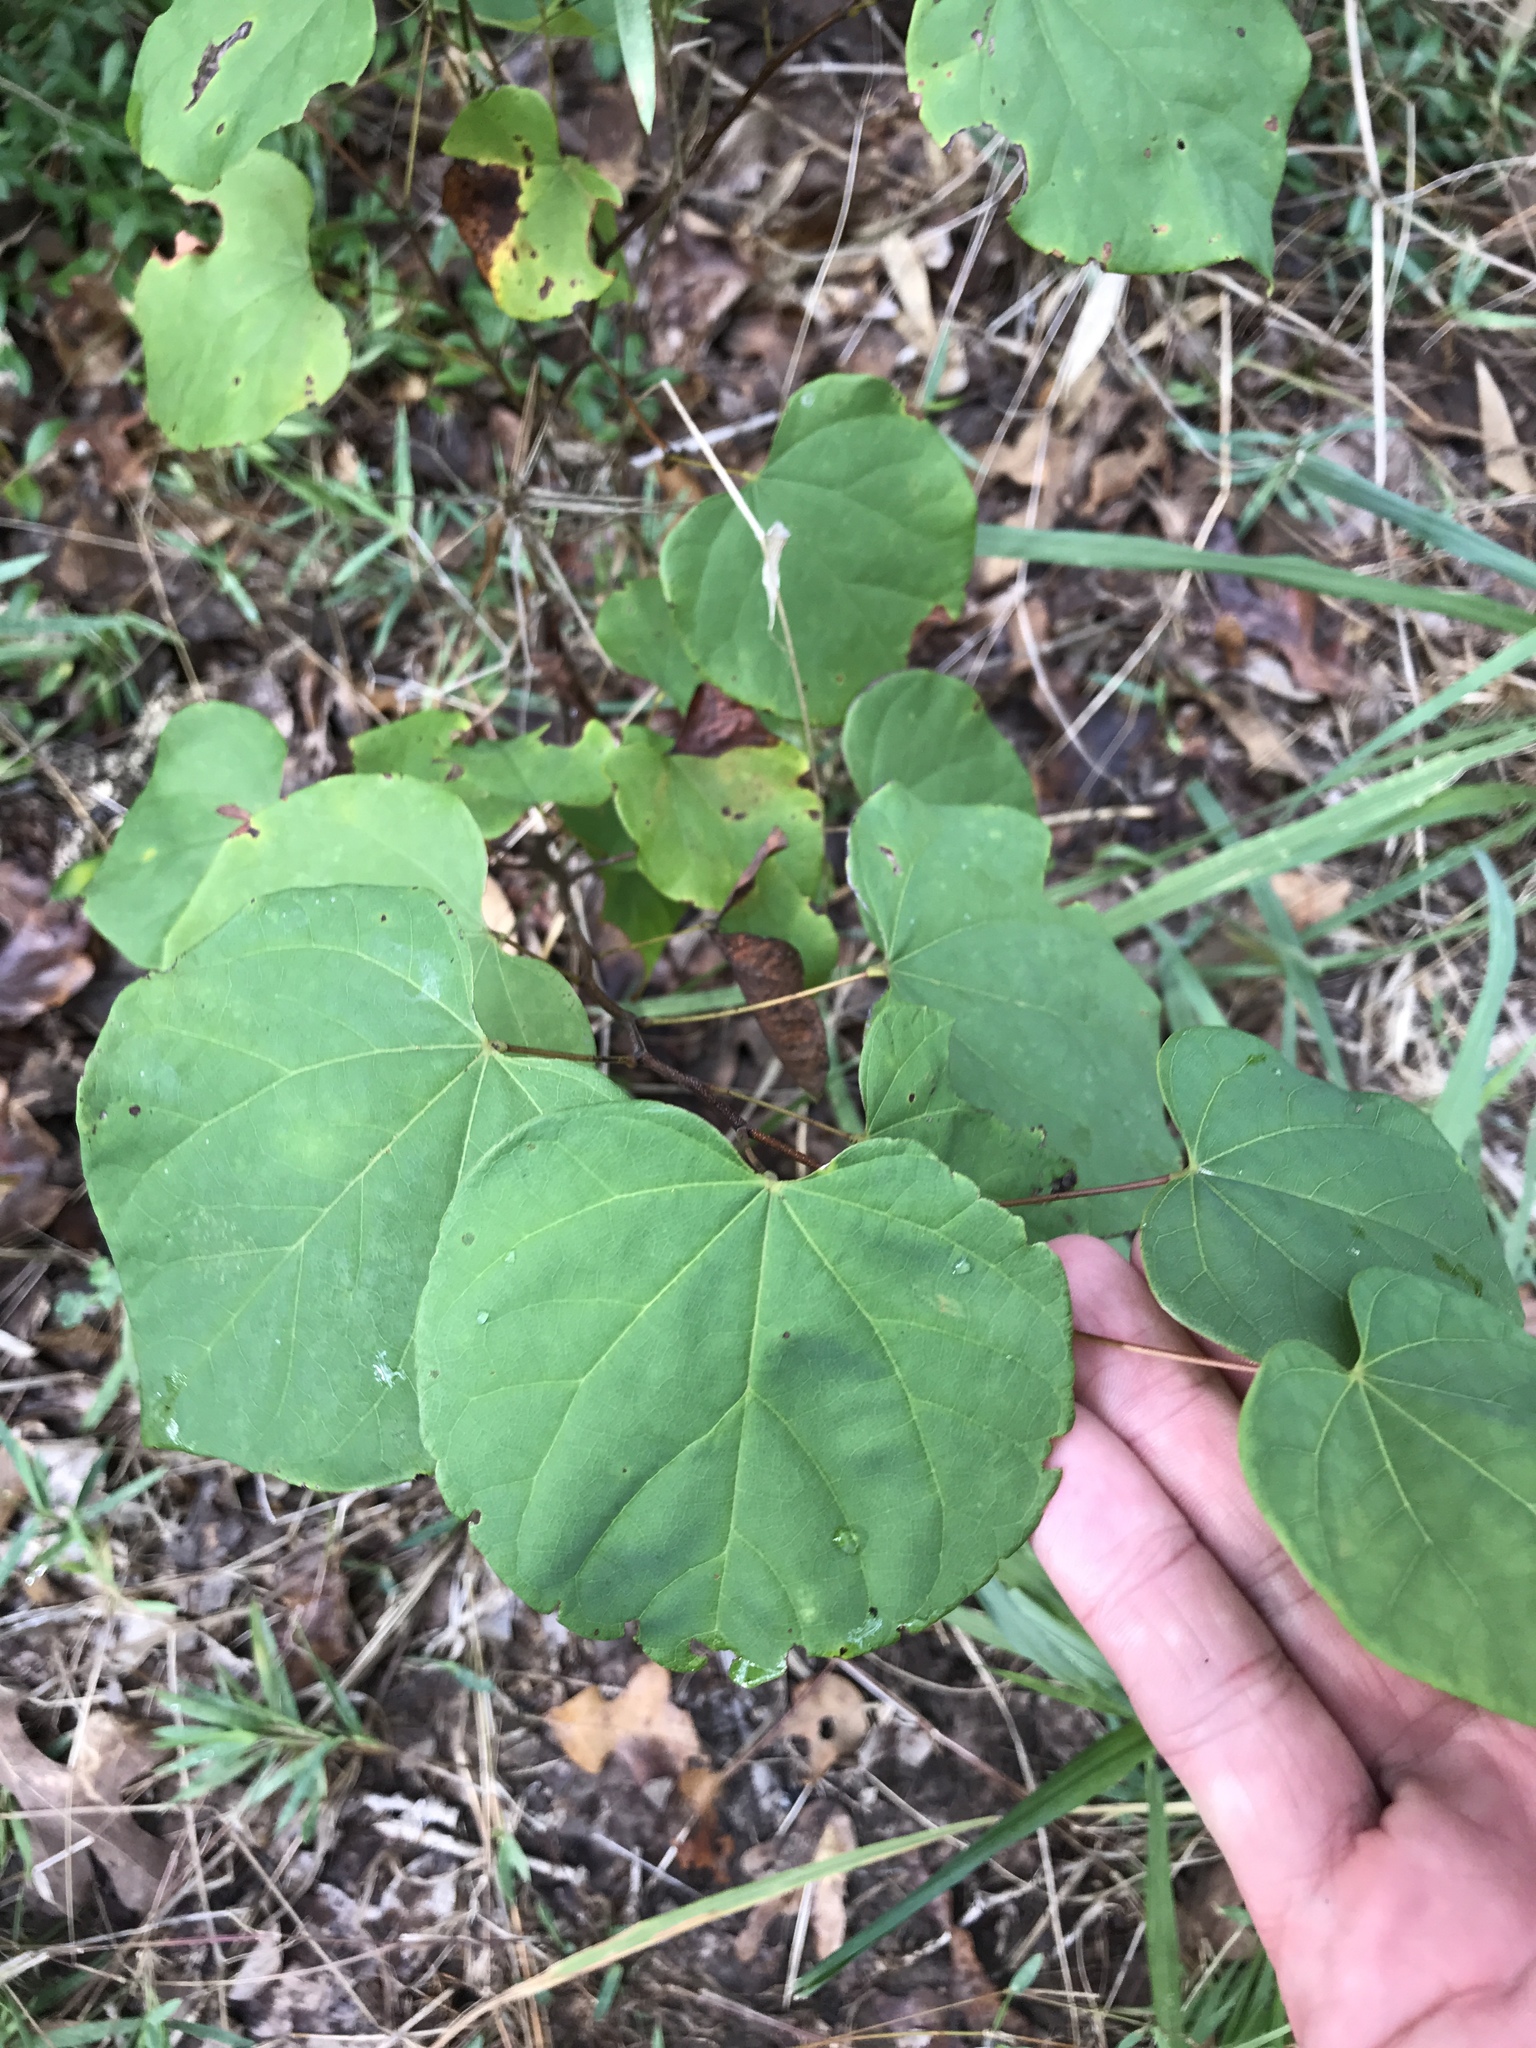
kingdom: Plantae
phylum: Tracheophyta
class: Magnoliopsida
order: Fabales
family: Fabaceae
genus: Cercis
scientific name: Cercis canadensis
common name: Eastern redbud
